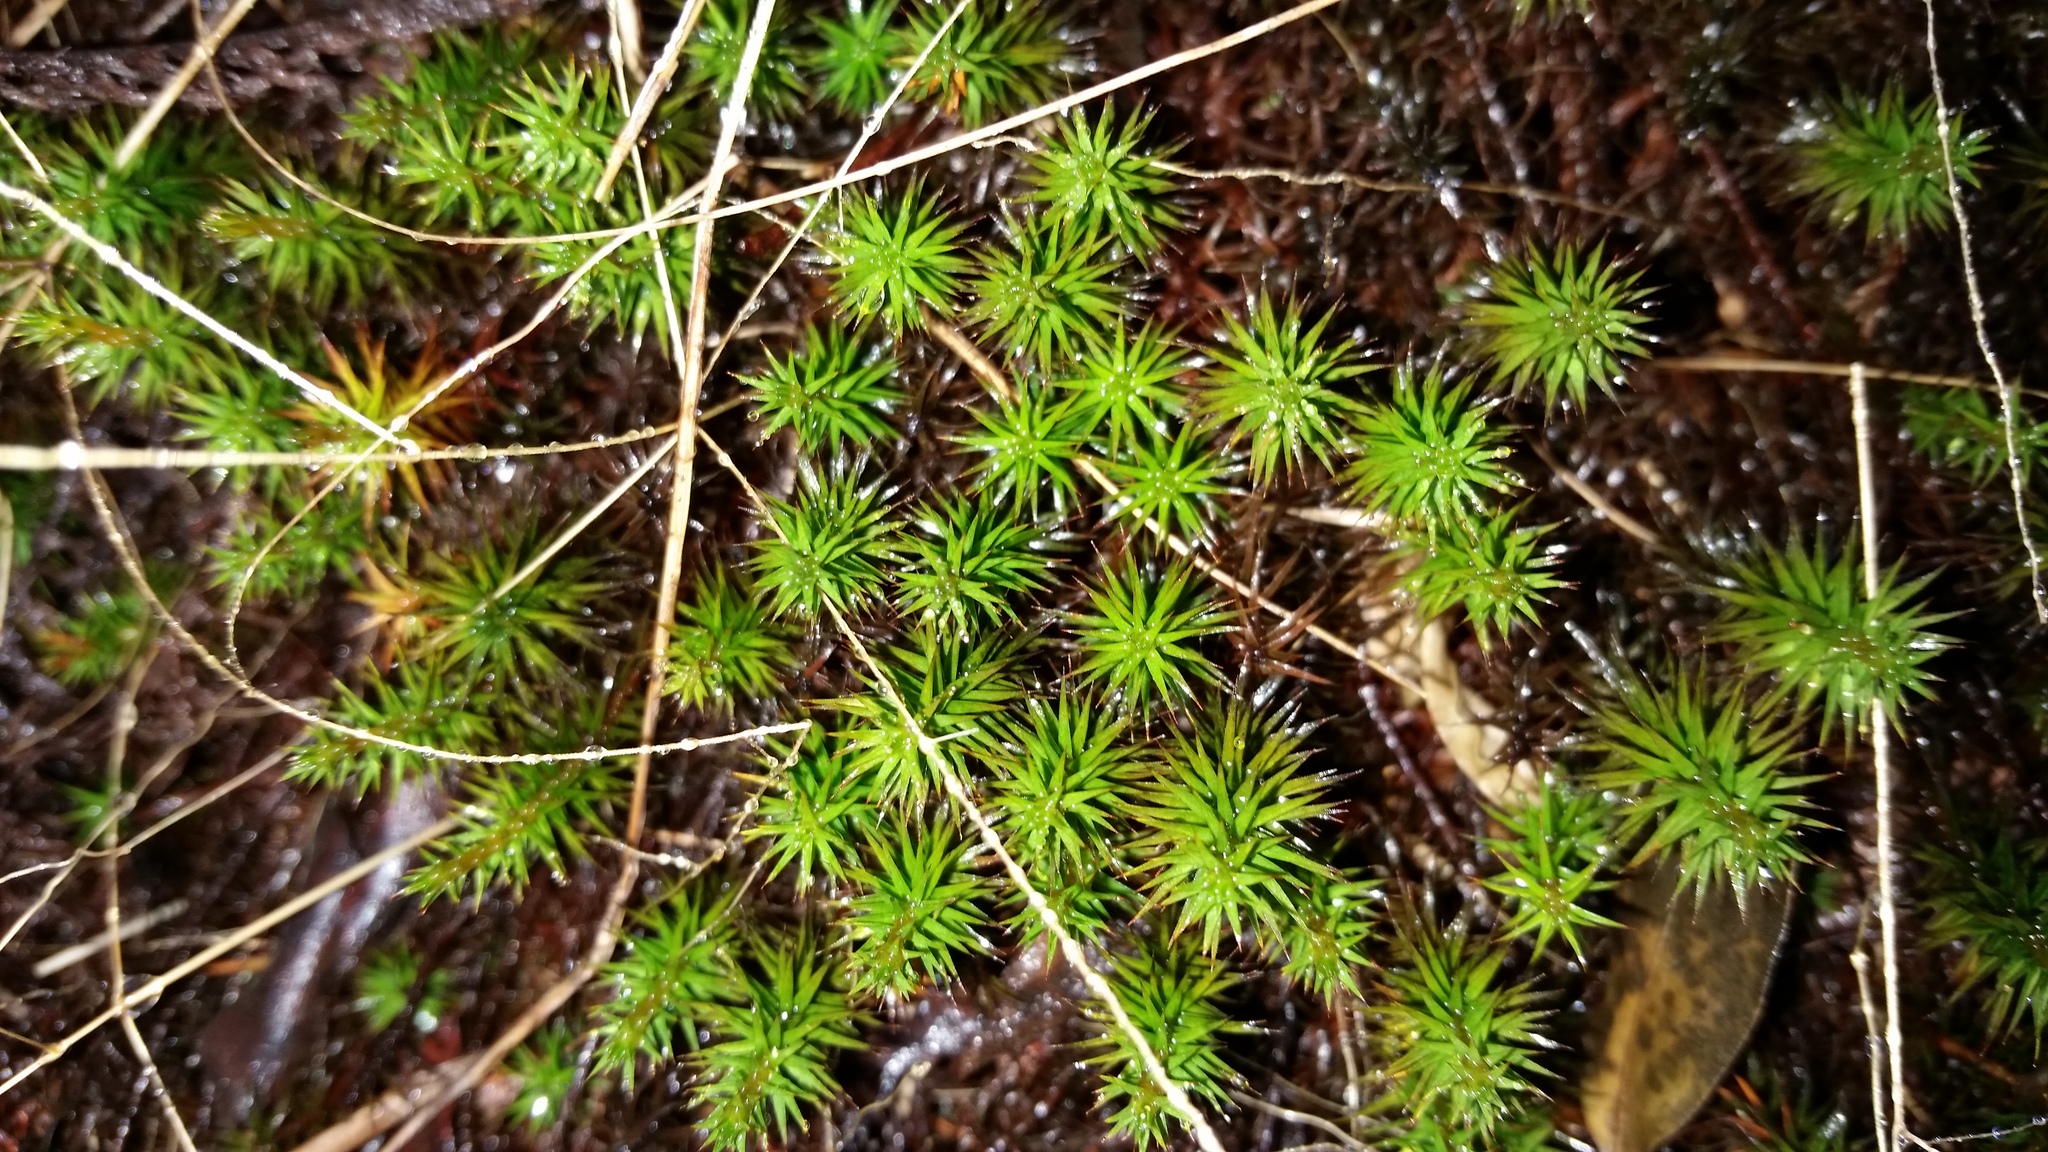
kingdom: Plantae
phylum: Bryophyta
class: Polytrichopsida
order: Polytrichales
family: Polytrichaceae
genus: Polytrichum
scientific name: Polytrichum commune
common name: Common haircap
